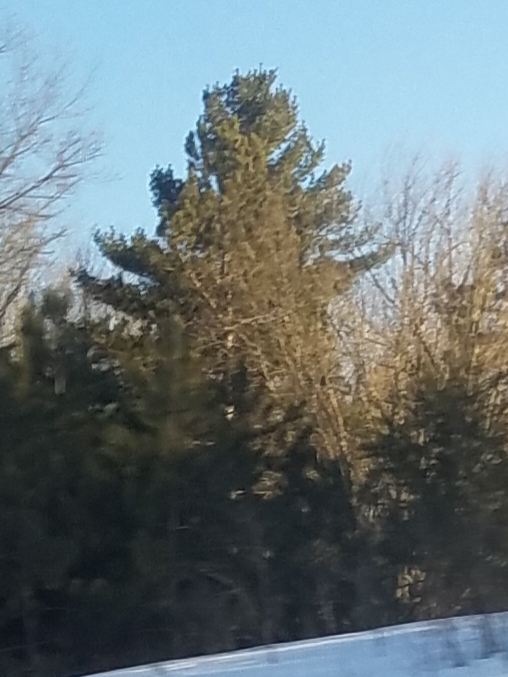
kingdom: Plantae
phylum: Tracheophyta
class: Pinopsida
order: Pinales
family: Pinaceae
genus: Pinus
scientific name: Pinus strobus
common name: Weymouth pine
